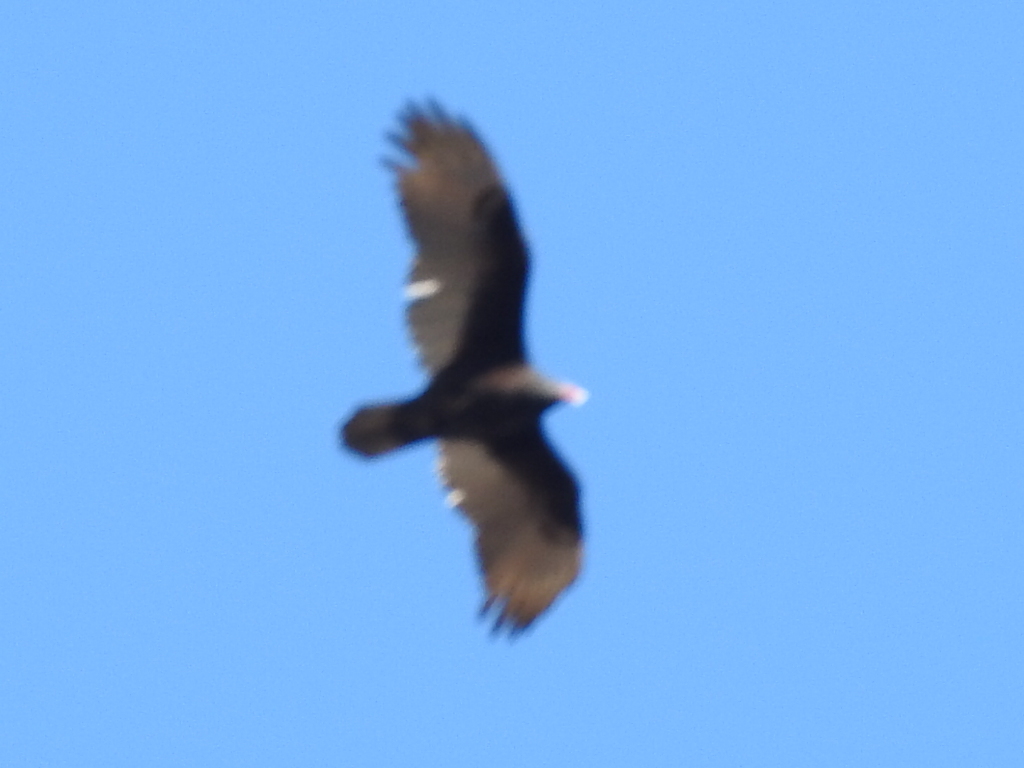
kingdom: Animalia
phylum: Chordata
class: Aves
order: Accipitriformes
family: Cathartidae
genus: Cathartes
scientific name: Cathartes aura
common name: Turkey vulture
